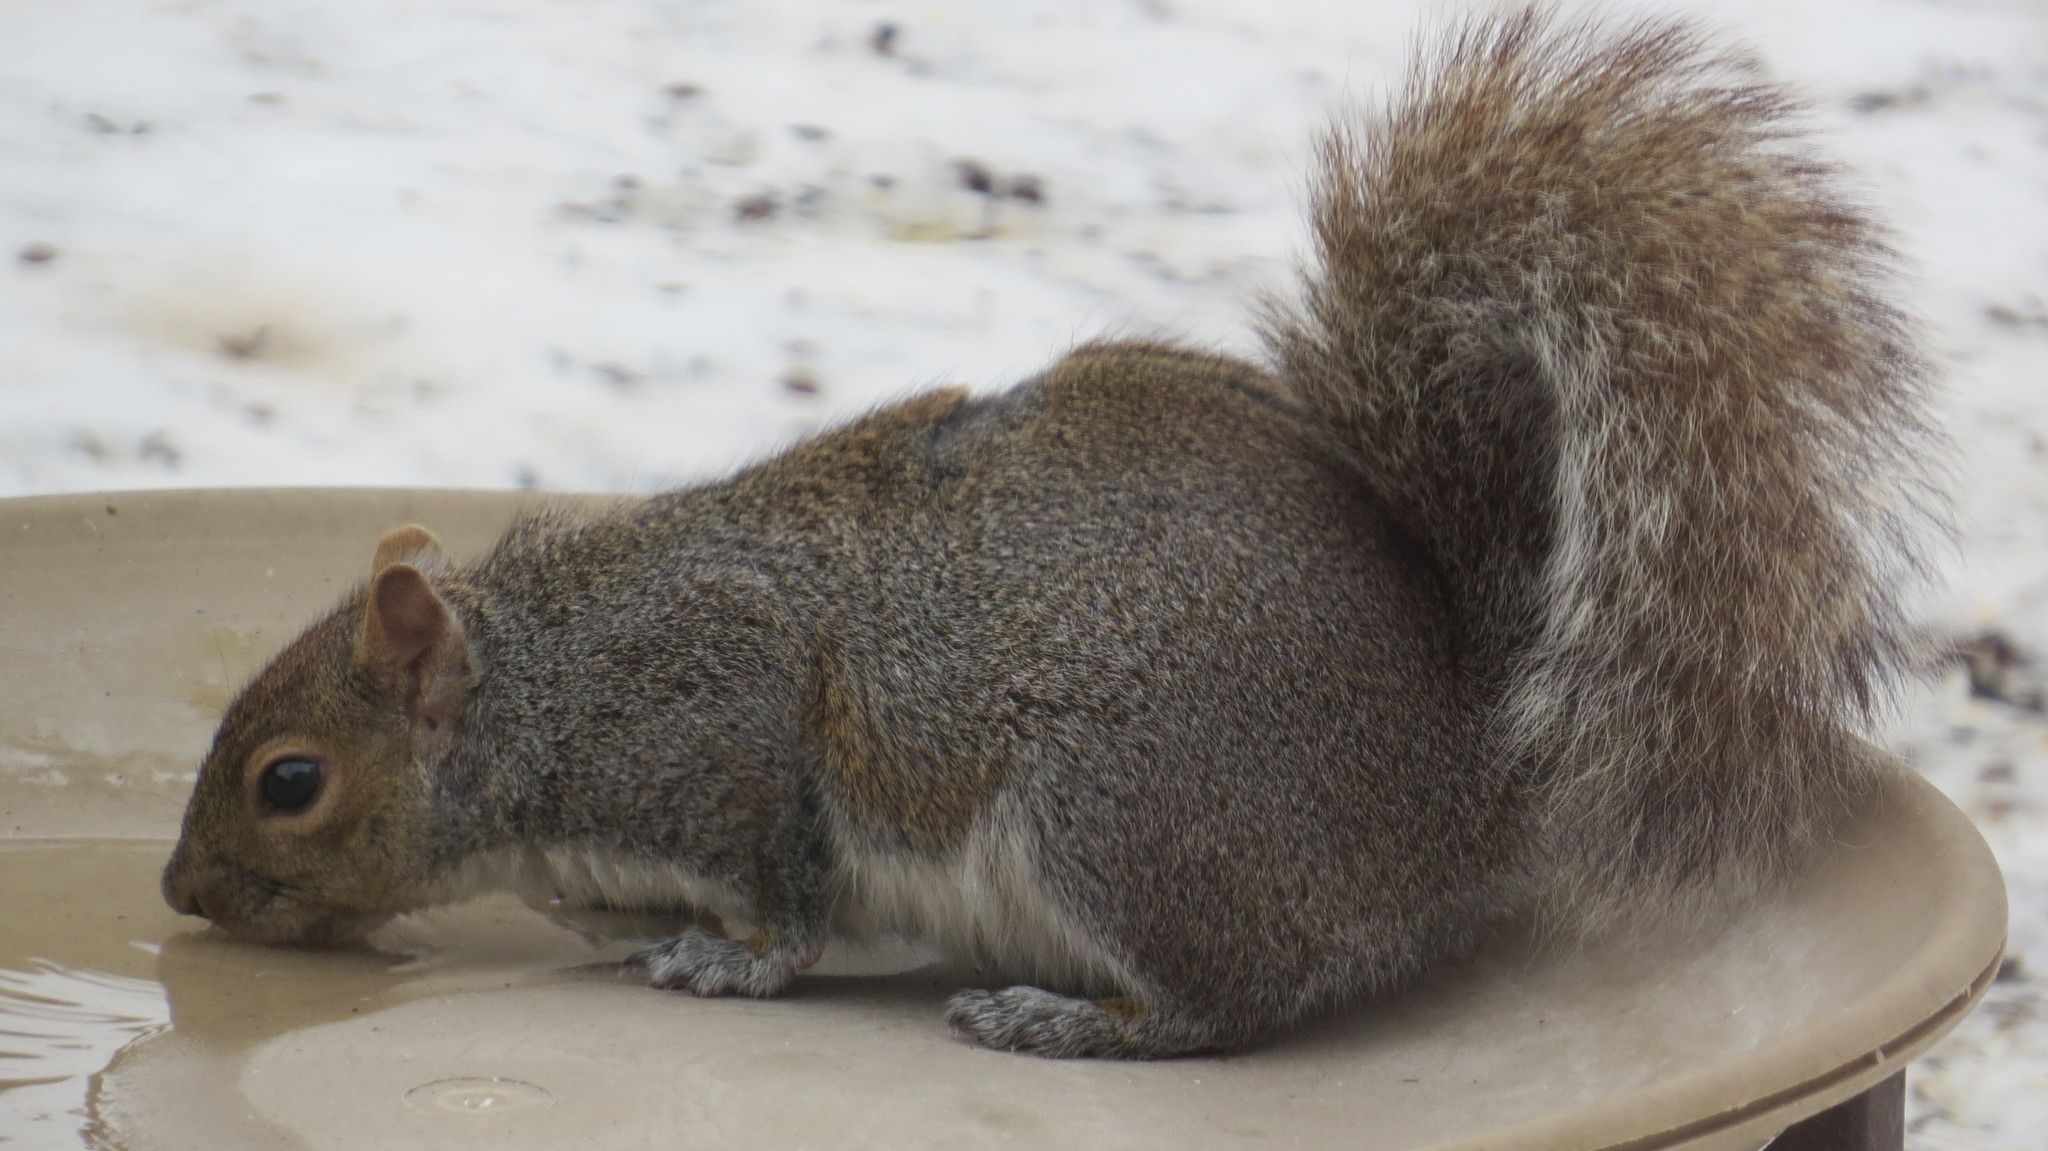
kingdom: Animalia
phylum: Chordata
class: Mammalia
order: Rodentia
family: Sciuridae
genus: Sciurus
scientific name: Sciurus carolinensis
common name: Eastern gray squirrel
